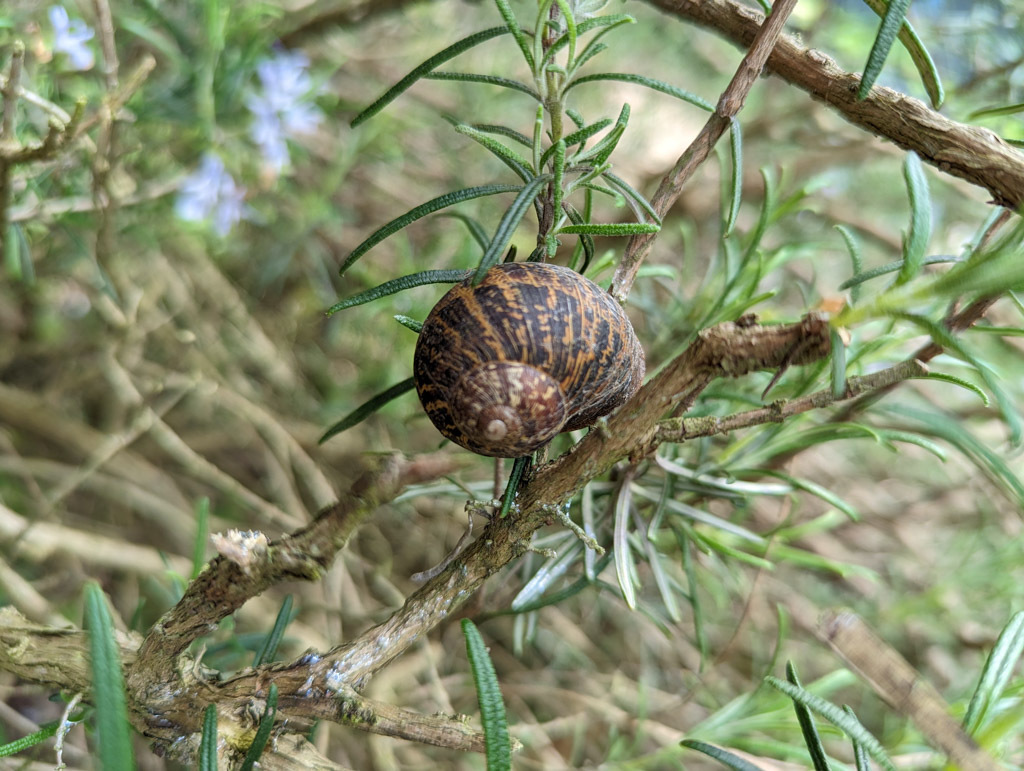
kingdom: Animalia
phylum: Mollusca
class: Gastropoda
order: Stylommatophora
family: Helicidae
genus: Cornu
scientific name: Cornu aspersum
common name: Brown garden snail
